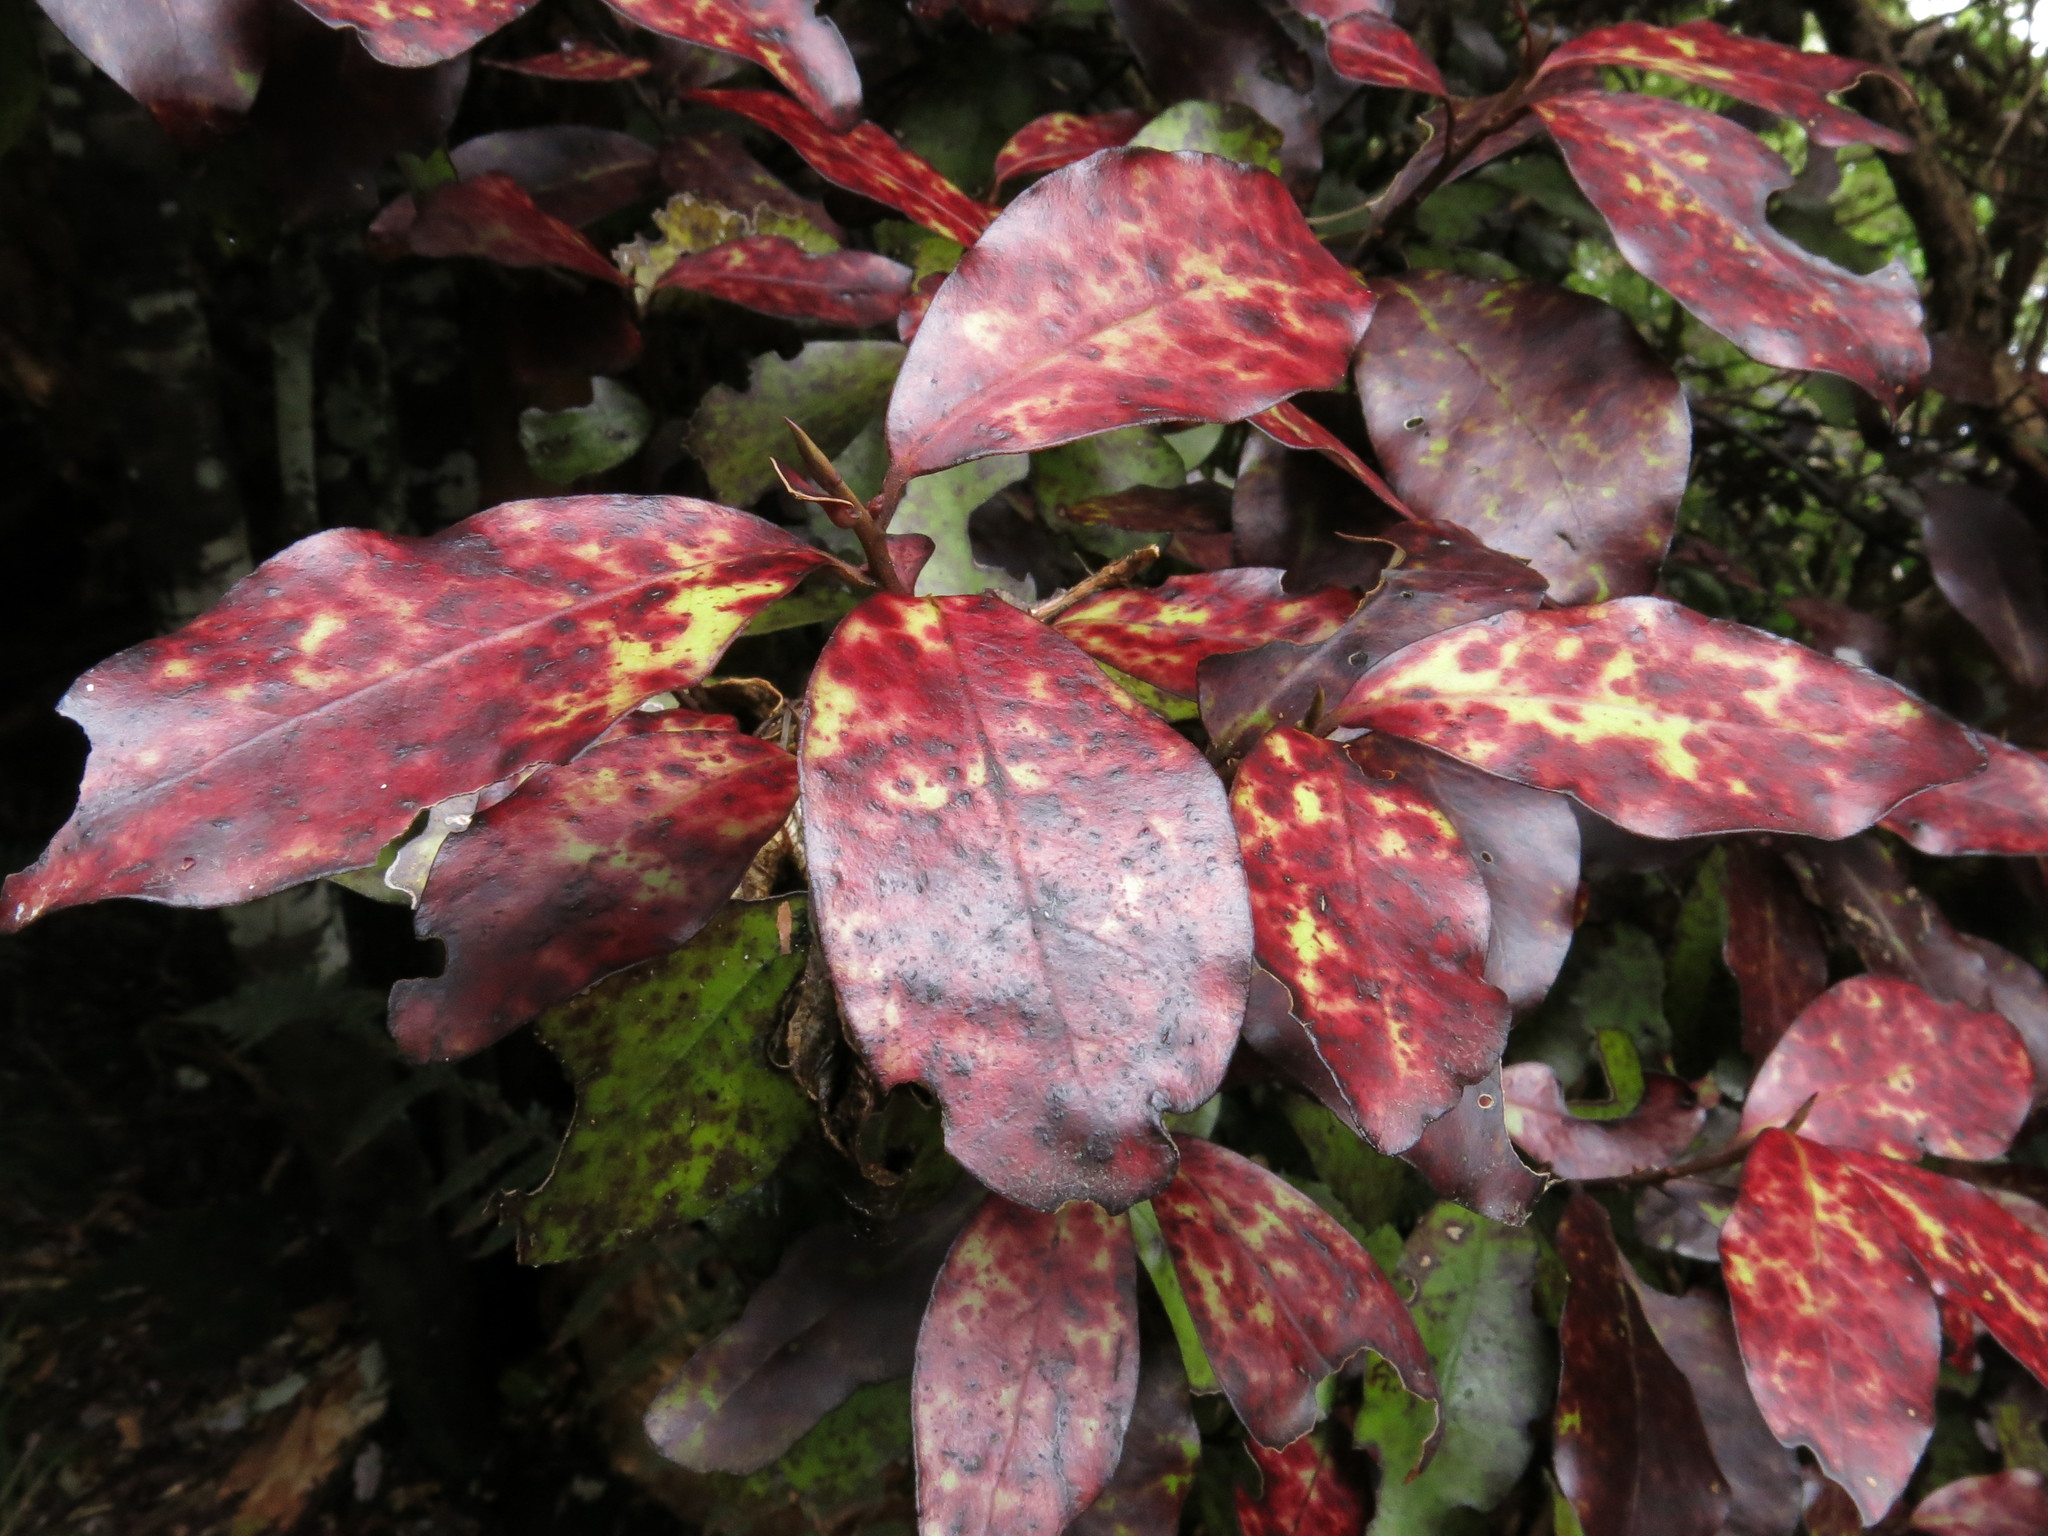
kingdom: Plantae
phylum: Tracheophyta
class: Magnoliopsida
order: Canellales
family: Winteraceae
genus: Pseudowintera
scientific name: Pseudowintera colorata
